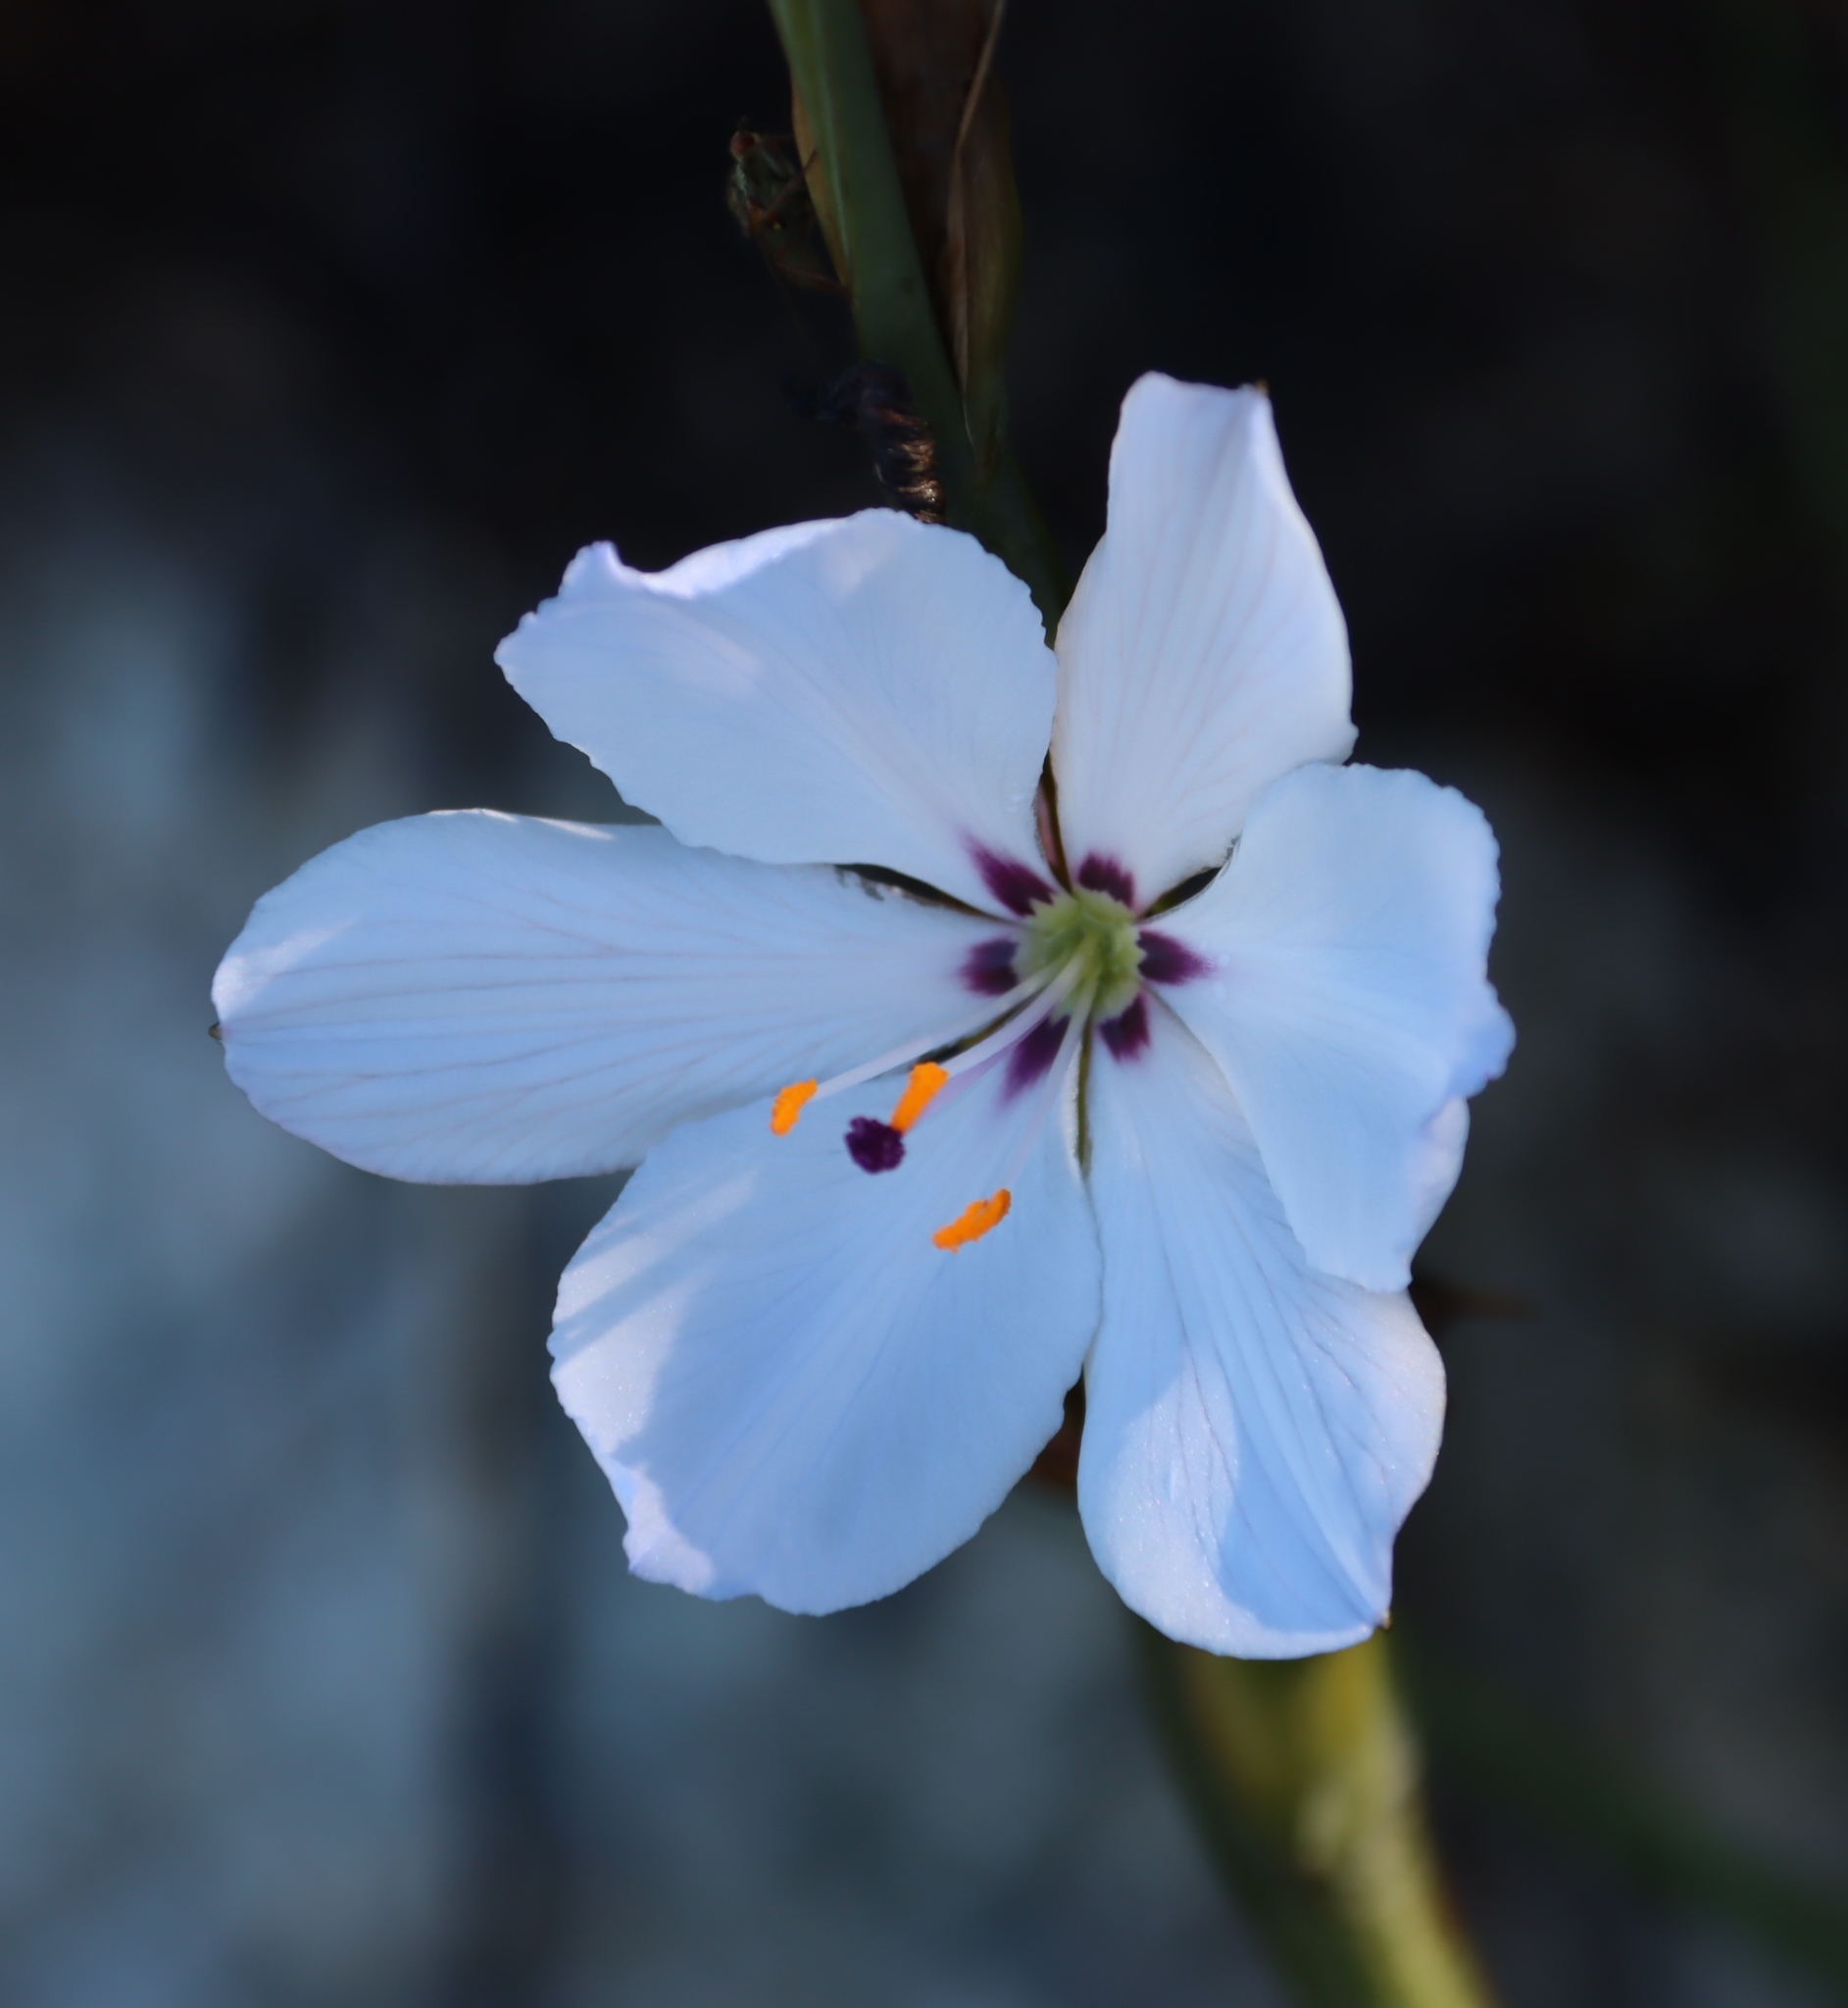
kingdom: Plantae
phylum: Tracheophyta
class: Liliopsida
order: Asparagales
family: Iridaceae
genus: Aristea
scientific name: Aristea spiralis
